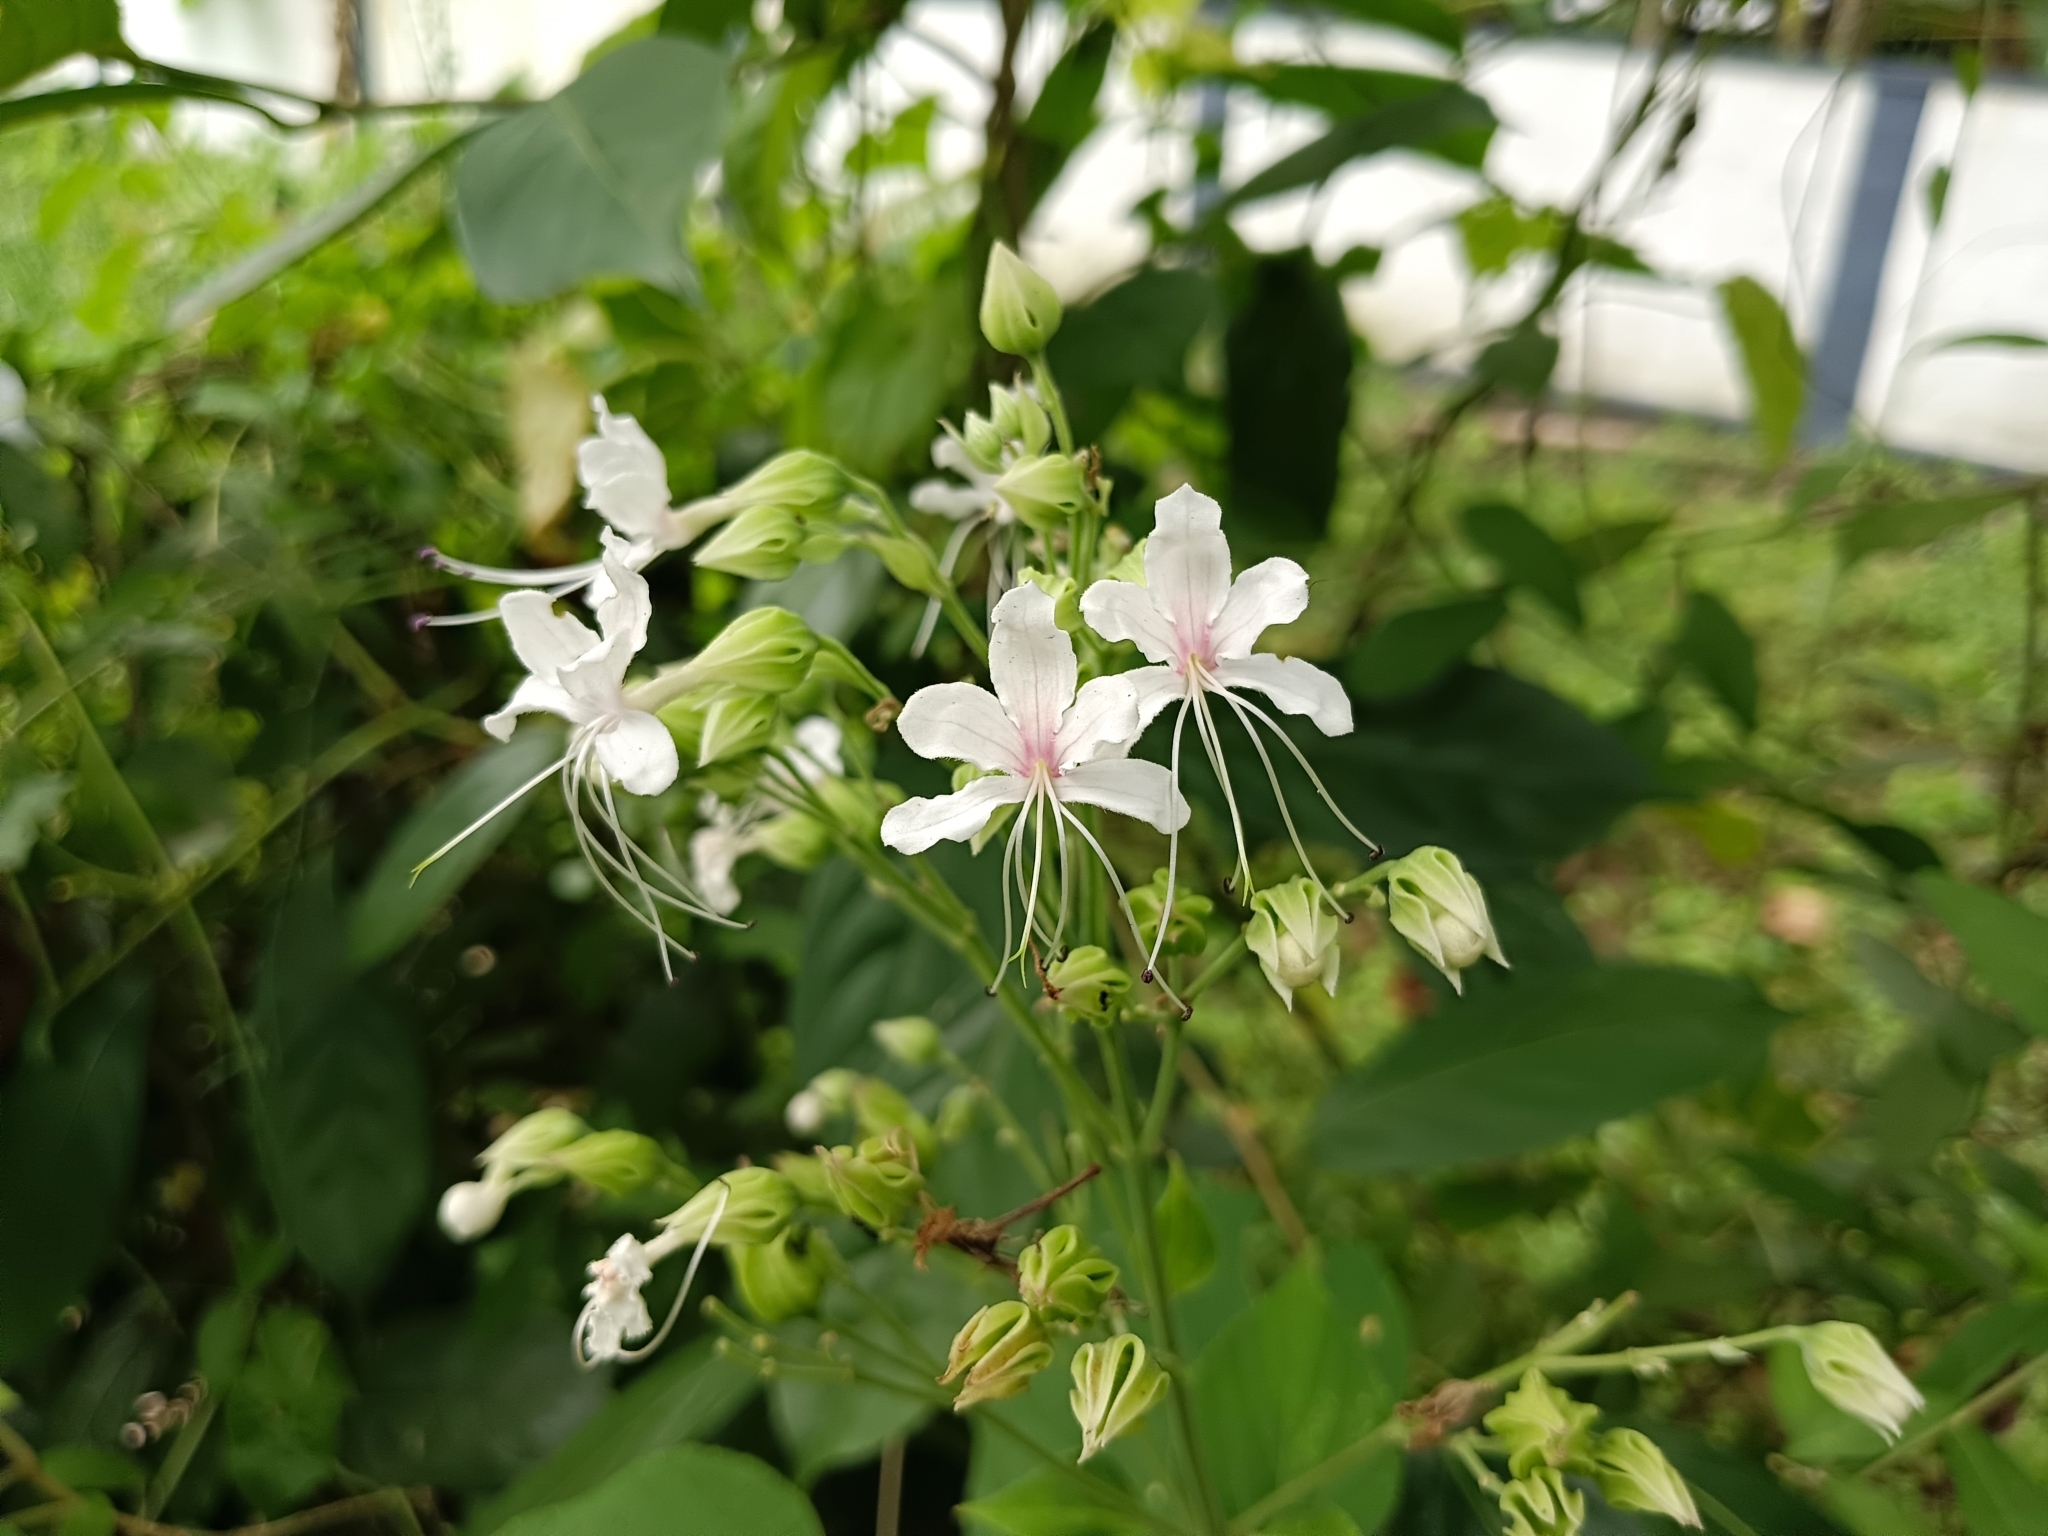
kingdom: Plantae
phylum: Tracheophyta
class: Magnoliopsida
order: Lamiales
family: Lamiaceae
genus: Clerodendrum
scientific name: Clerodendrum infortunatum
